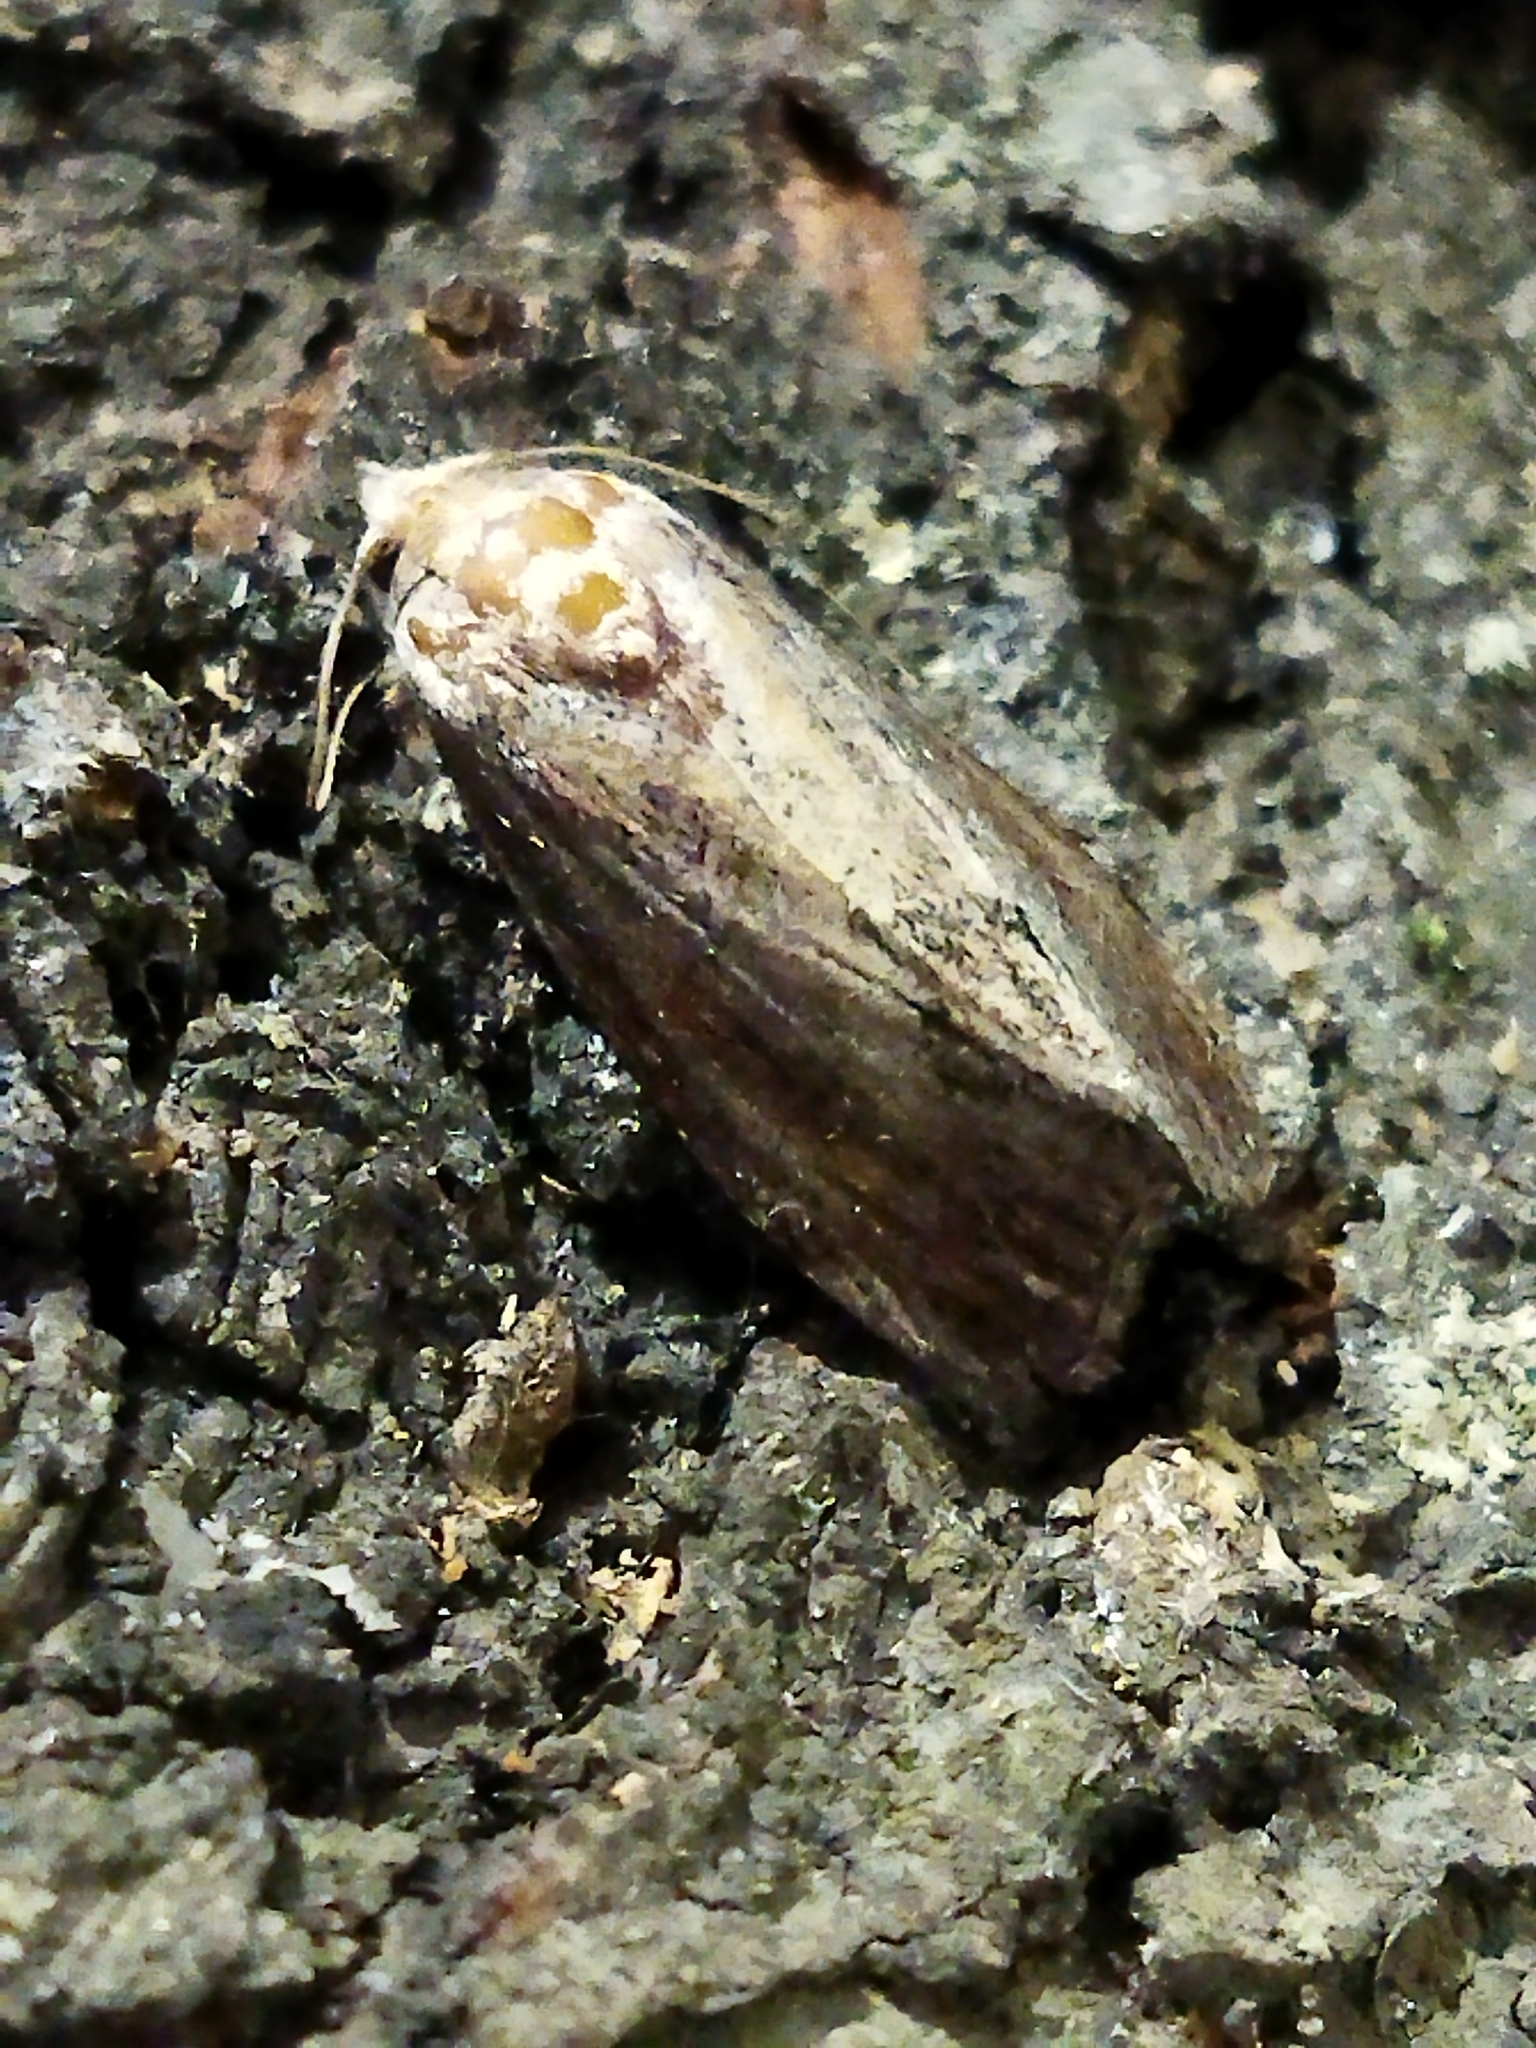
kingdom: Animalia
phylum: Arthropoda
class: Insecta
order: Lepidoptera
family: Pyralidae
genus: Galleria
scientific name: Galleria mellonella
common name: Greater wax moth
